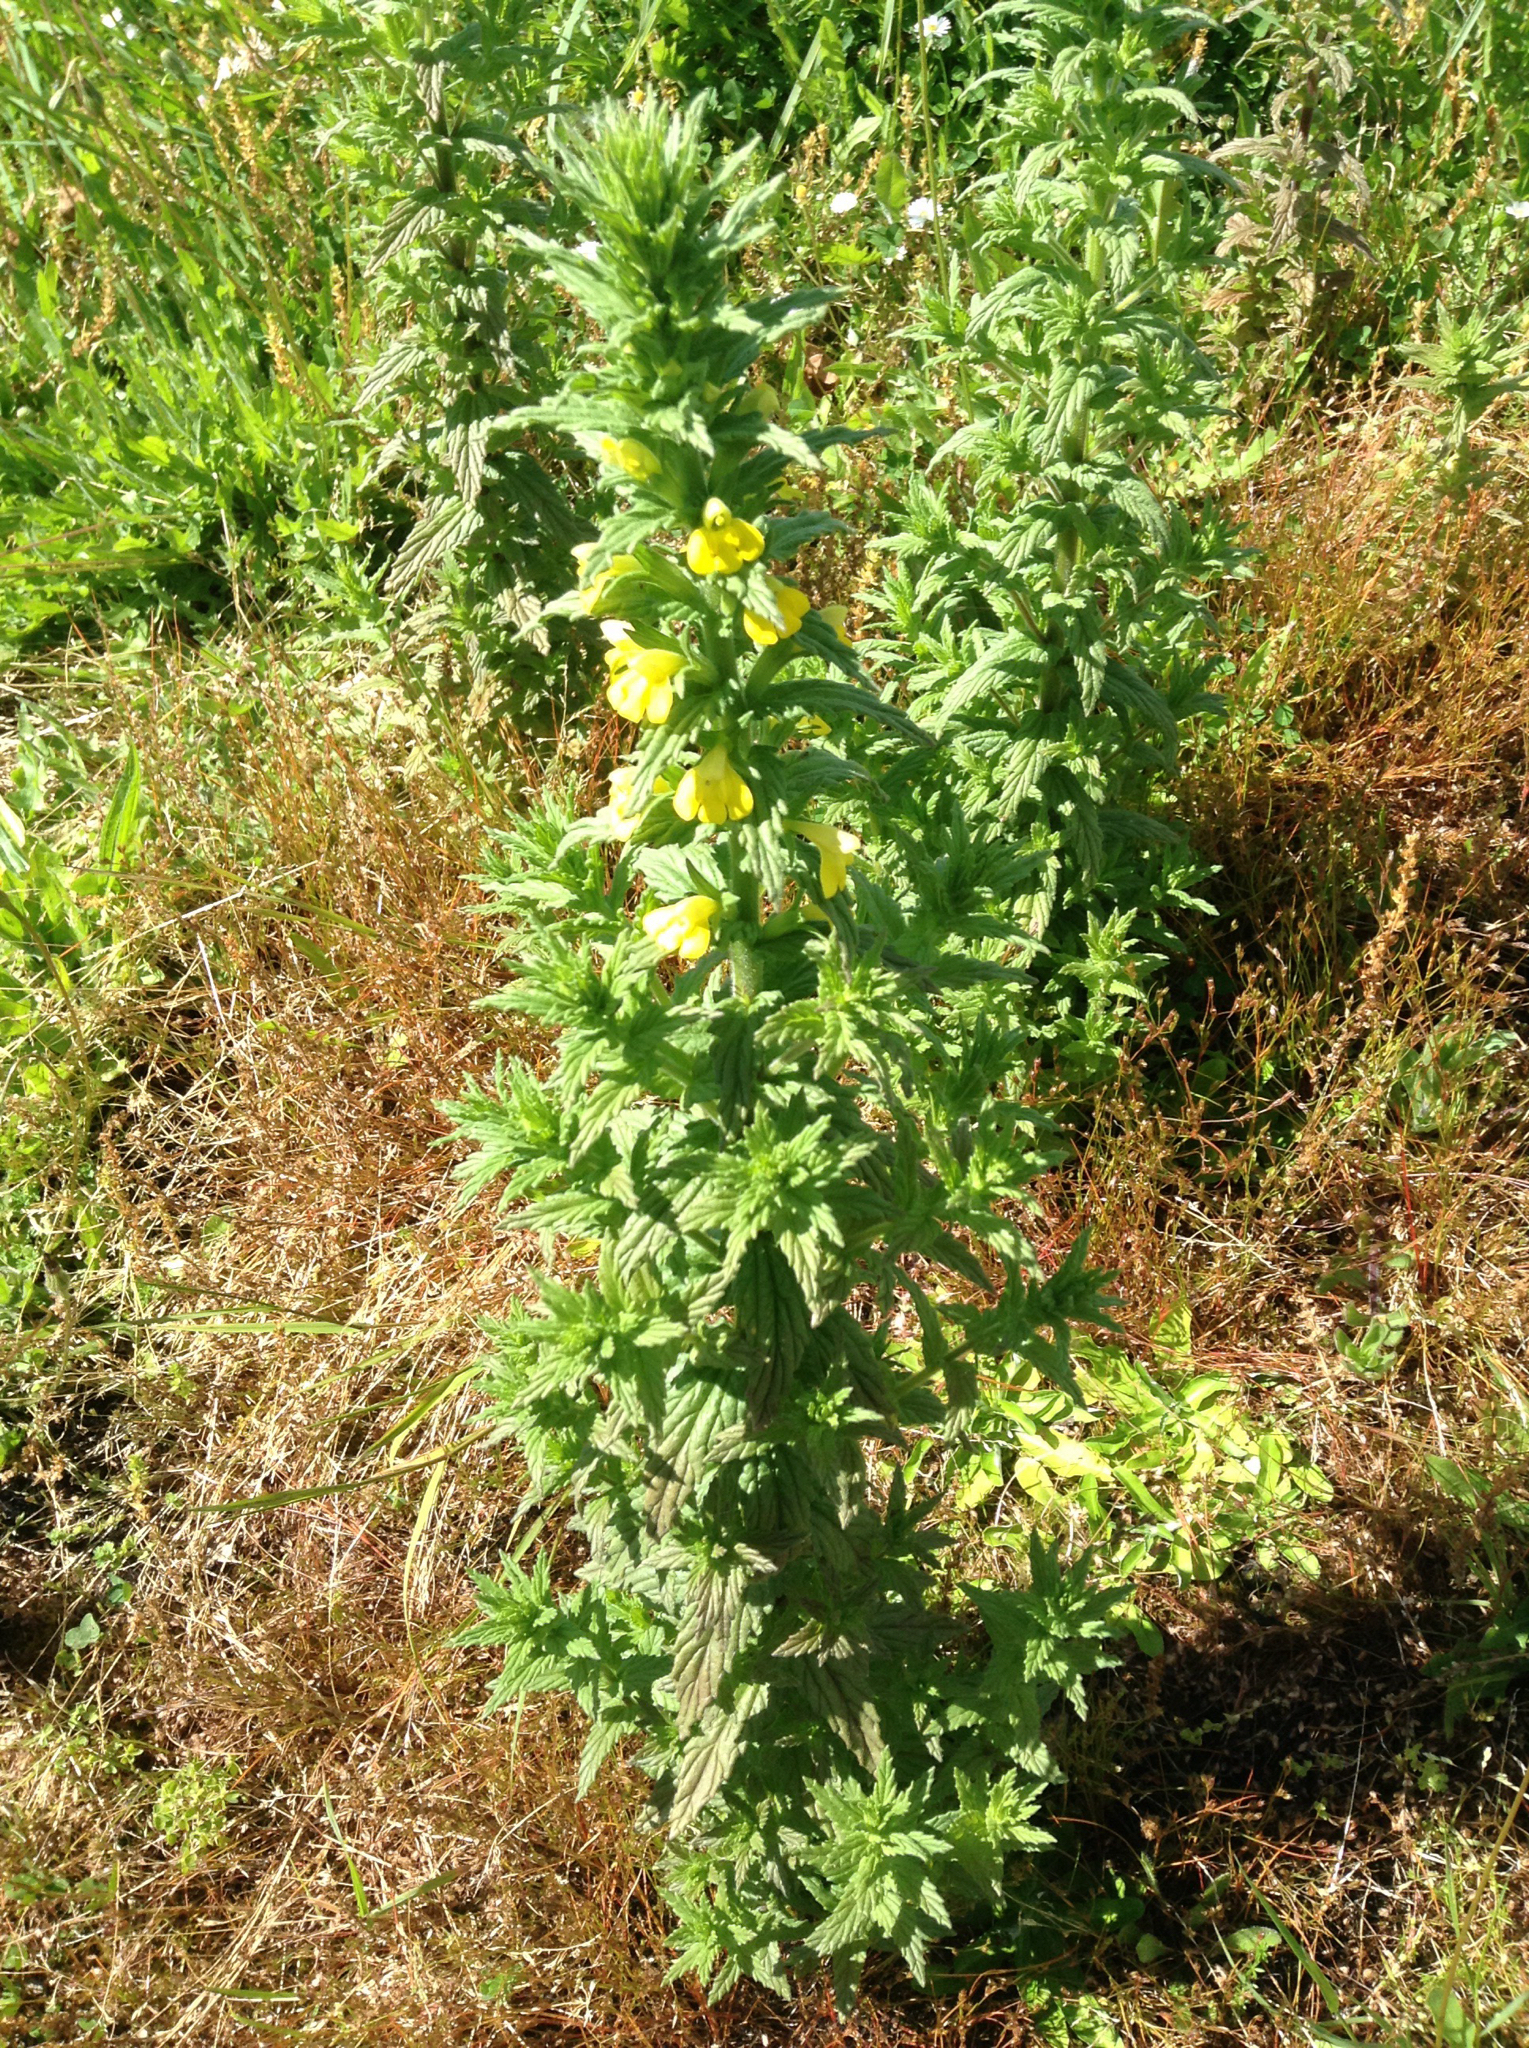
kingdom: Plantae
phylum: Tracheophyta
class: Magnoliopsida
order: Lamiales
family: Orobanchaceae
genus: Bellardia
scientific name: Bellardia viscosa
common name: Sticky parentucellia
